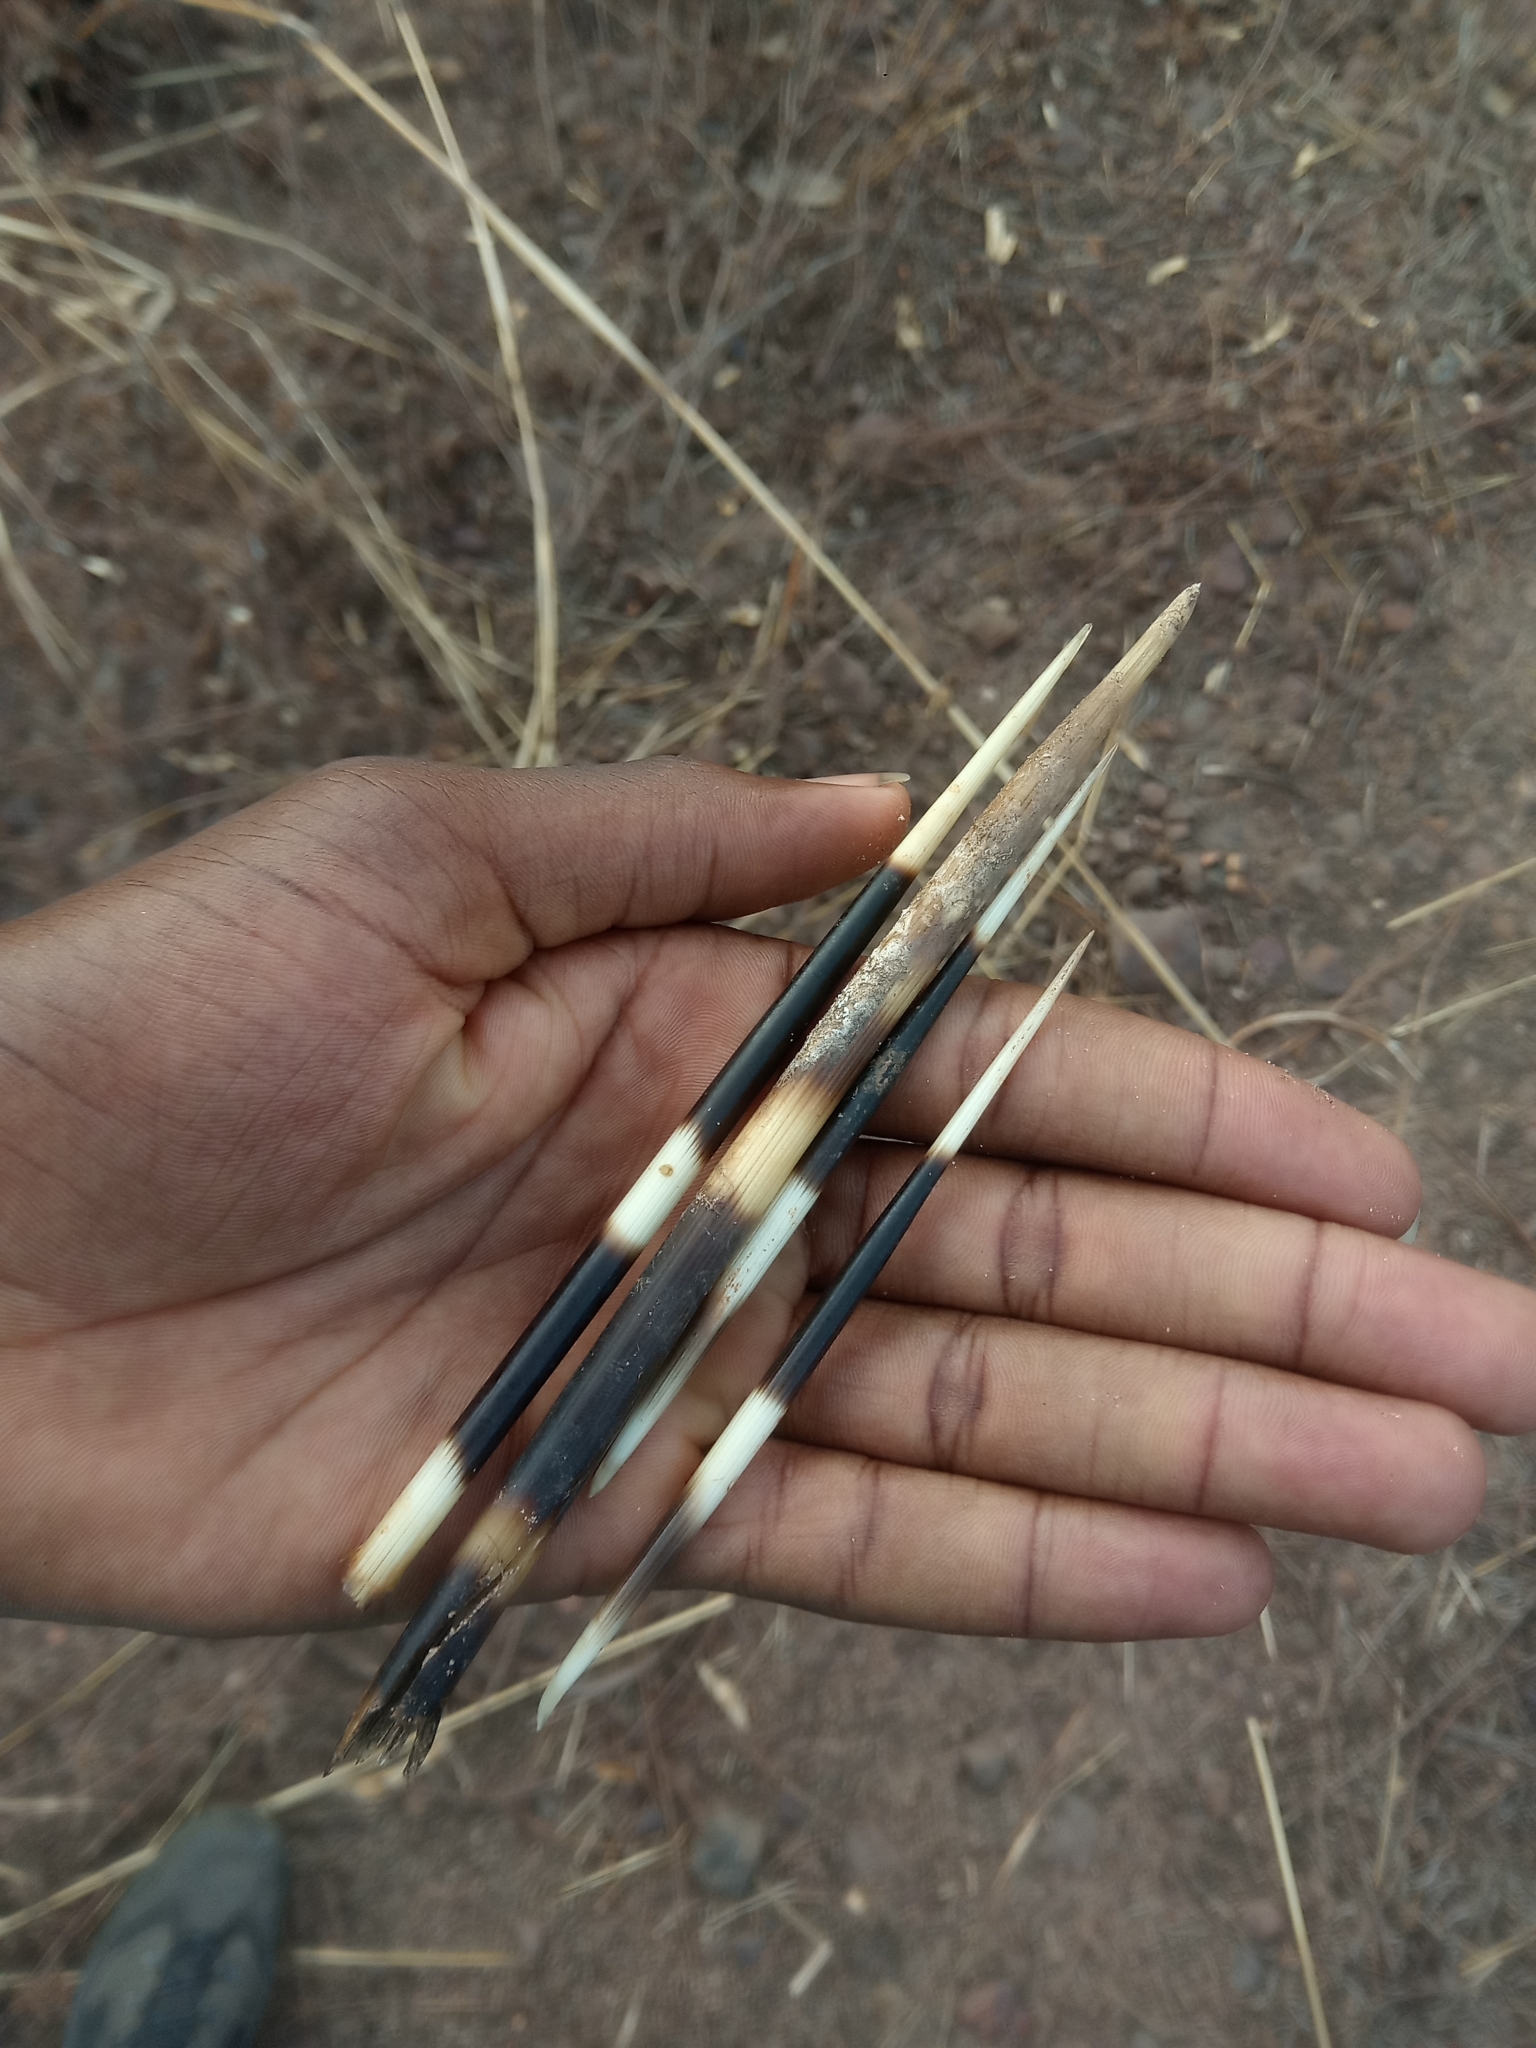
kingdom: Animalia
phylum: Chordata
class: Mammalia
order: Rodentia
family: Hystricidae
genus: Hystrix
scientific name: Hystrix cristata
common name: Crested porcupine
